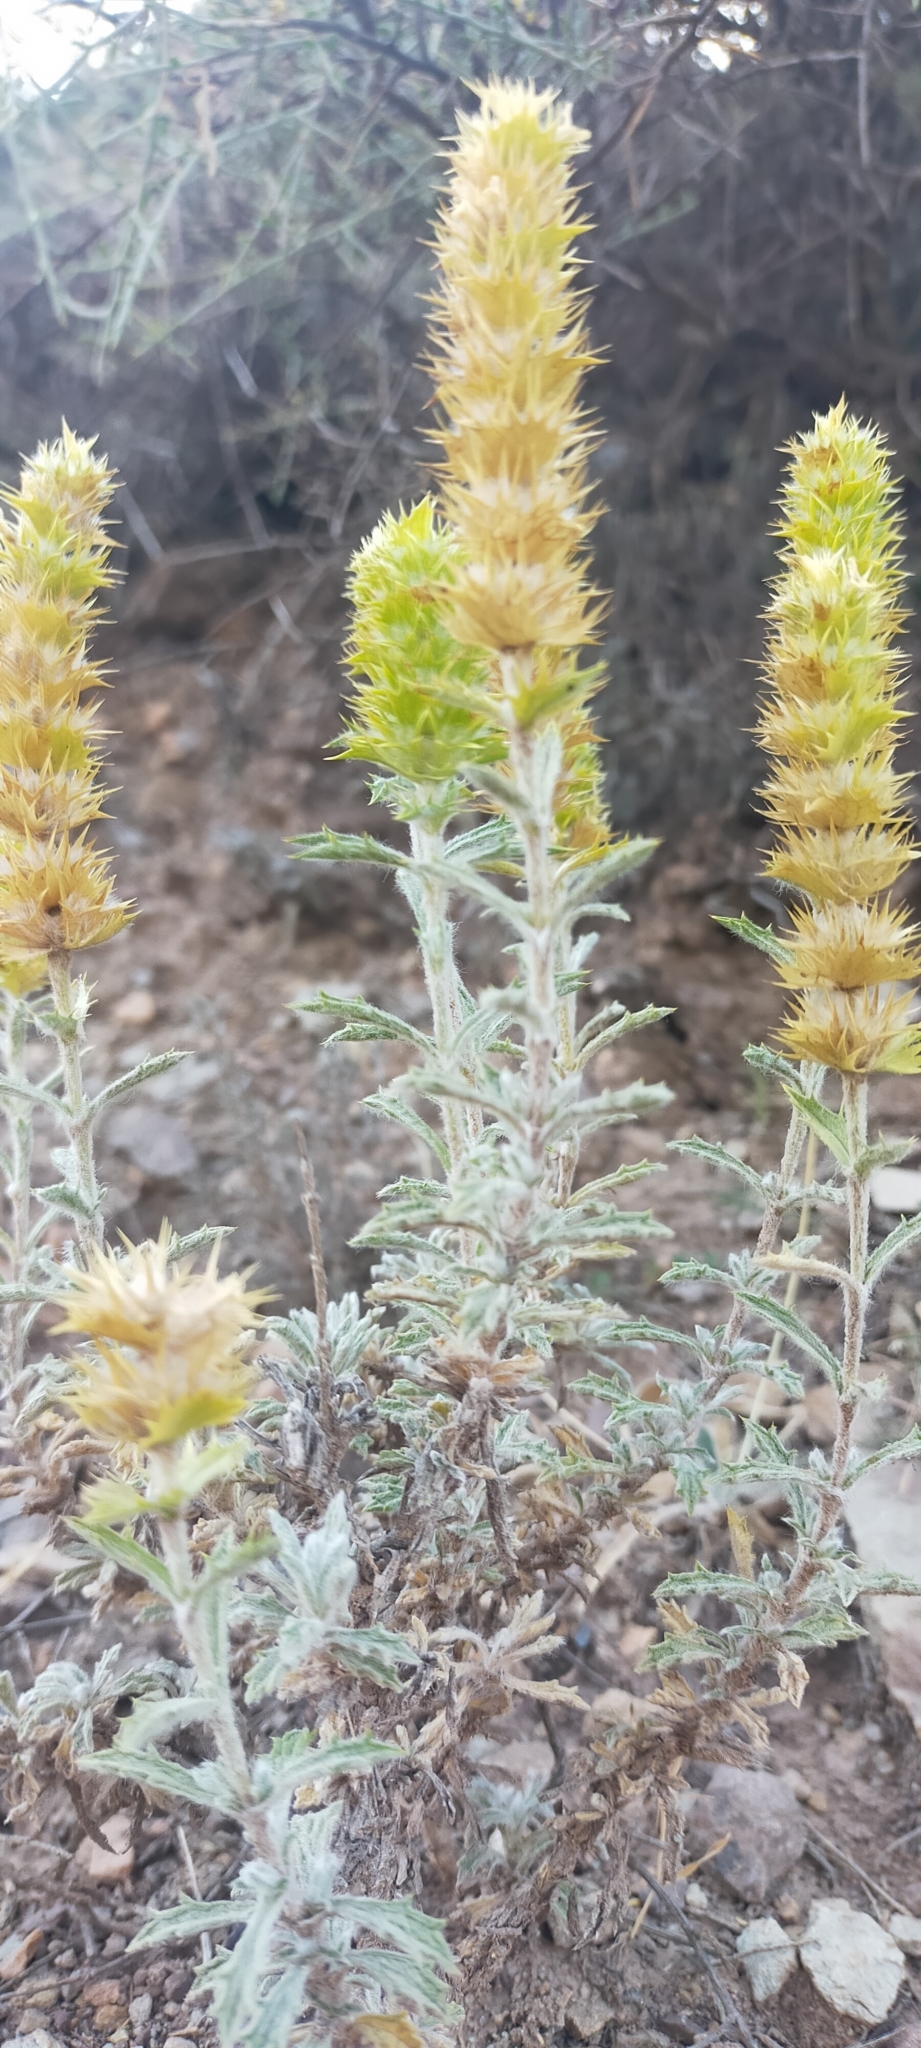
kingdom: Plantae
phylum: Tracheophyta
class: Magnoliopsida
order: Lamiales
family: Lamiaceae
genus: Sideritis
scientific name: Sideritis spinulosa
